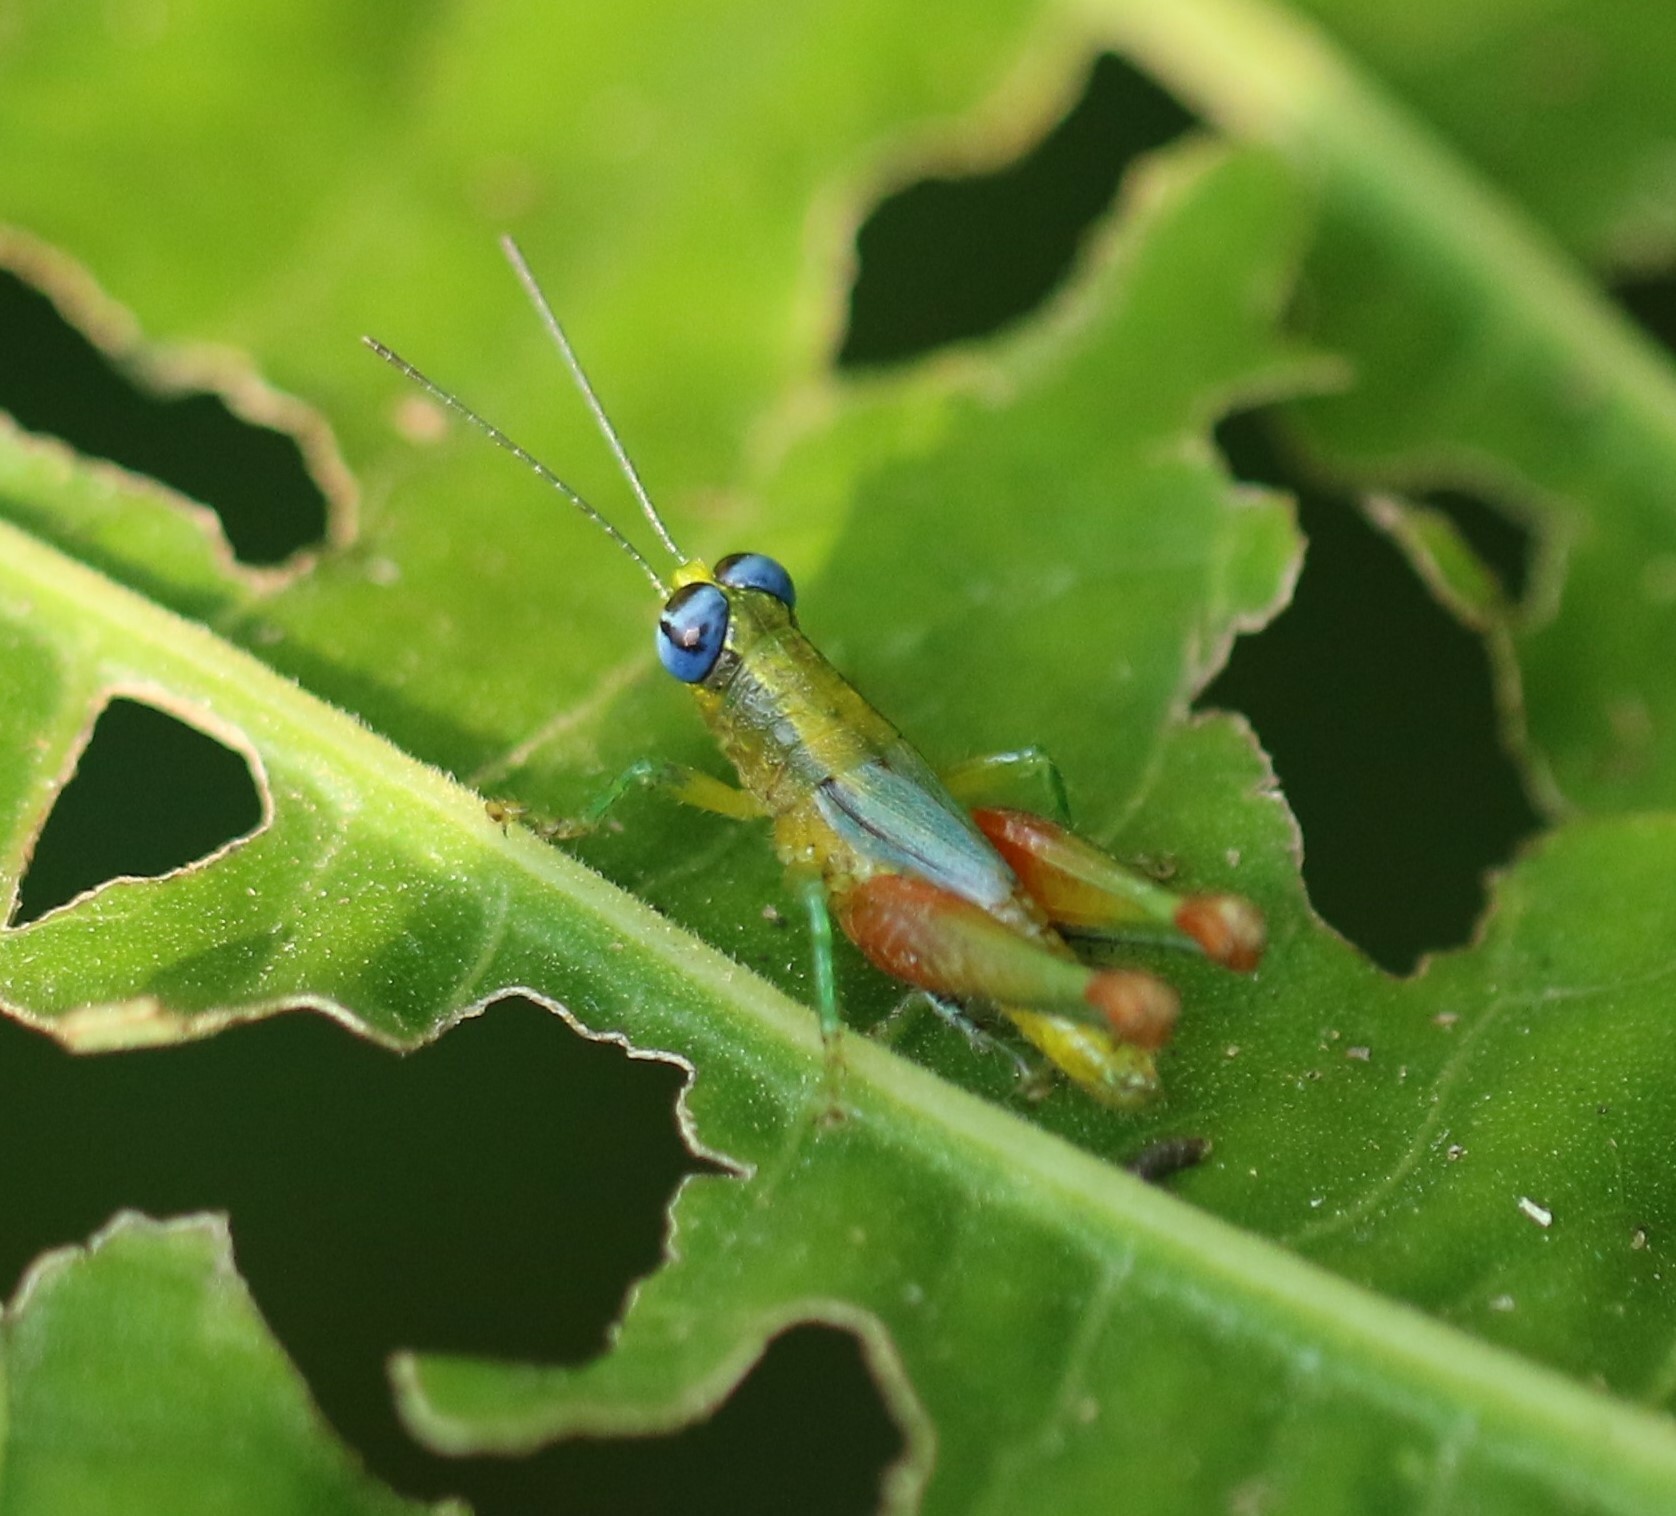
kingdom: Animalia
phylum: Arthropoda
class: Insecta
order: Orthoptera
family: Acrididae
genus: Pseudanniceris
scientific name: Pseudanniceris nigrinervis
